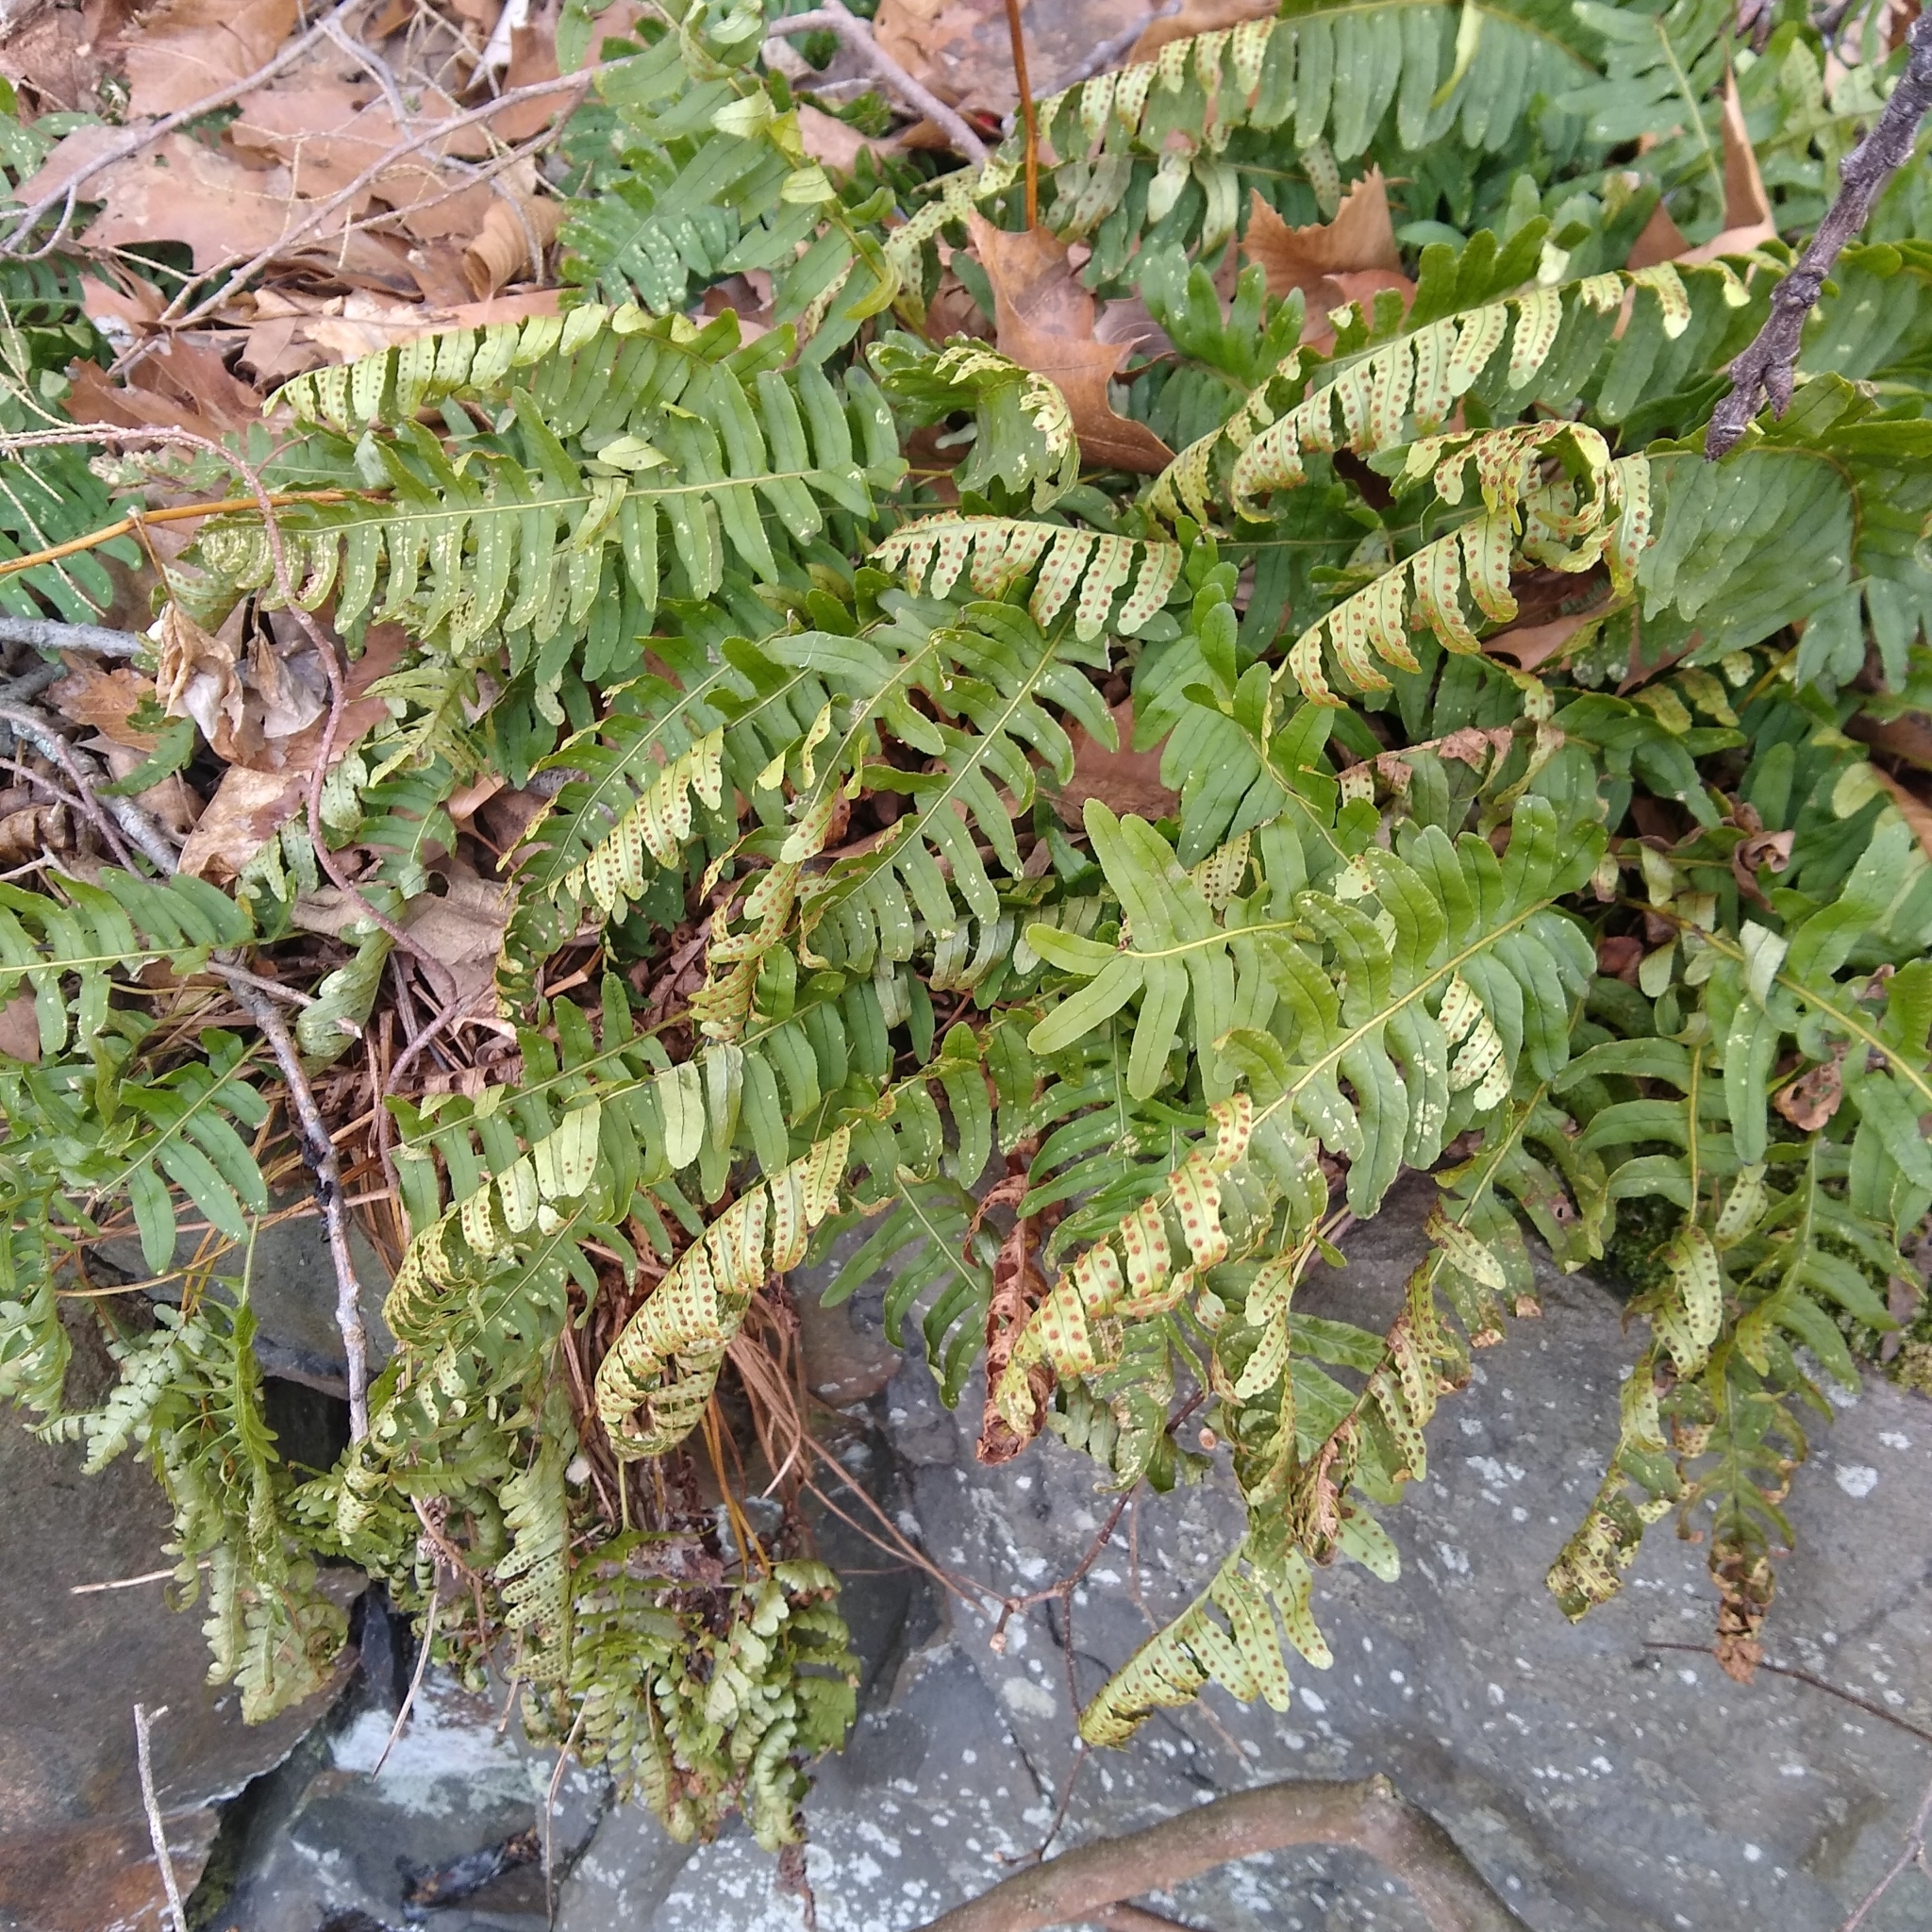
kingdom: Plantae
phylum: Tracheophyta
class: Polypodiopsida
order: Polypodiales
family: Polypodiaceae
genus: Polypodium
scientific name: Polypodium virginianum
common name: American wall fern
